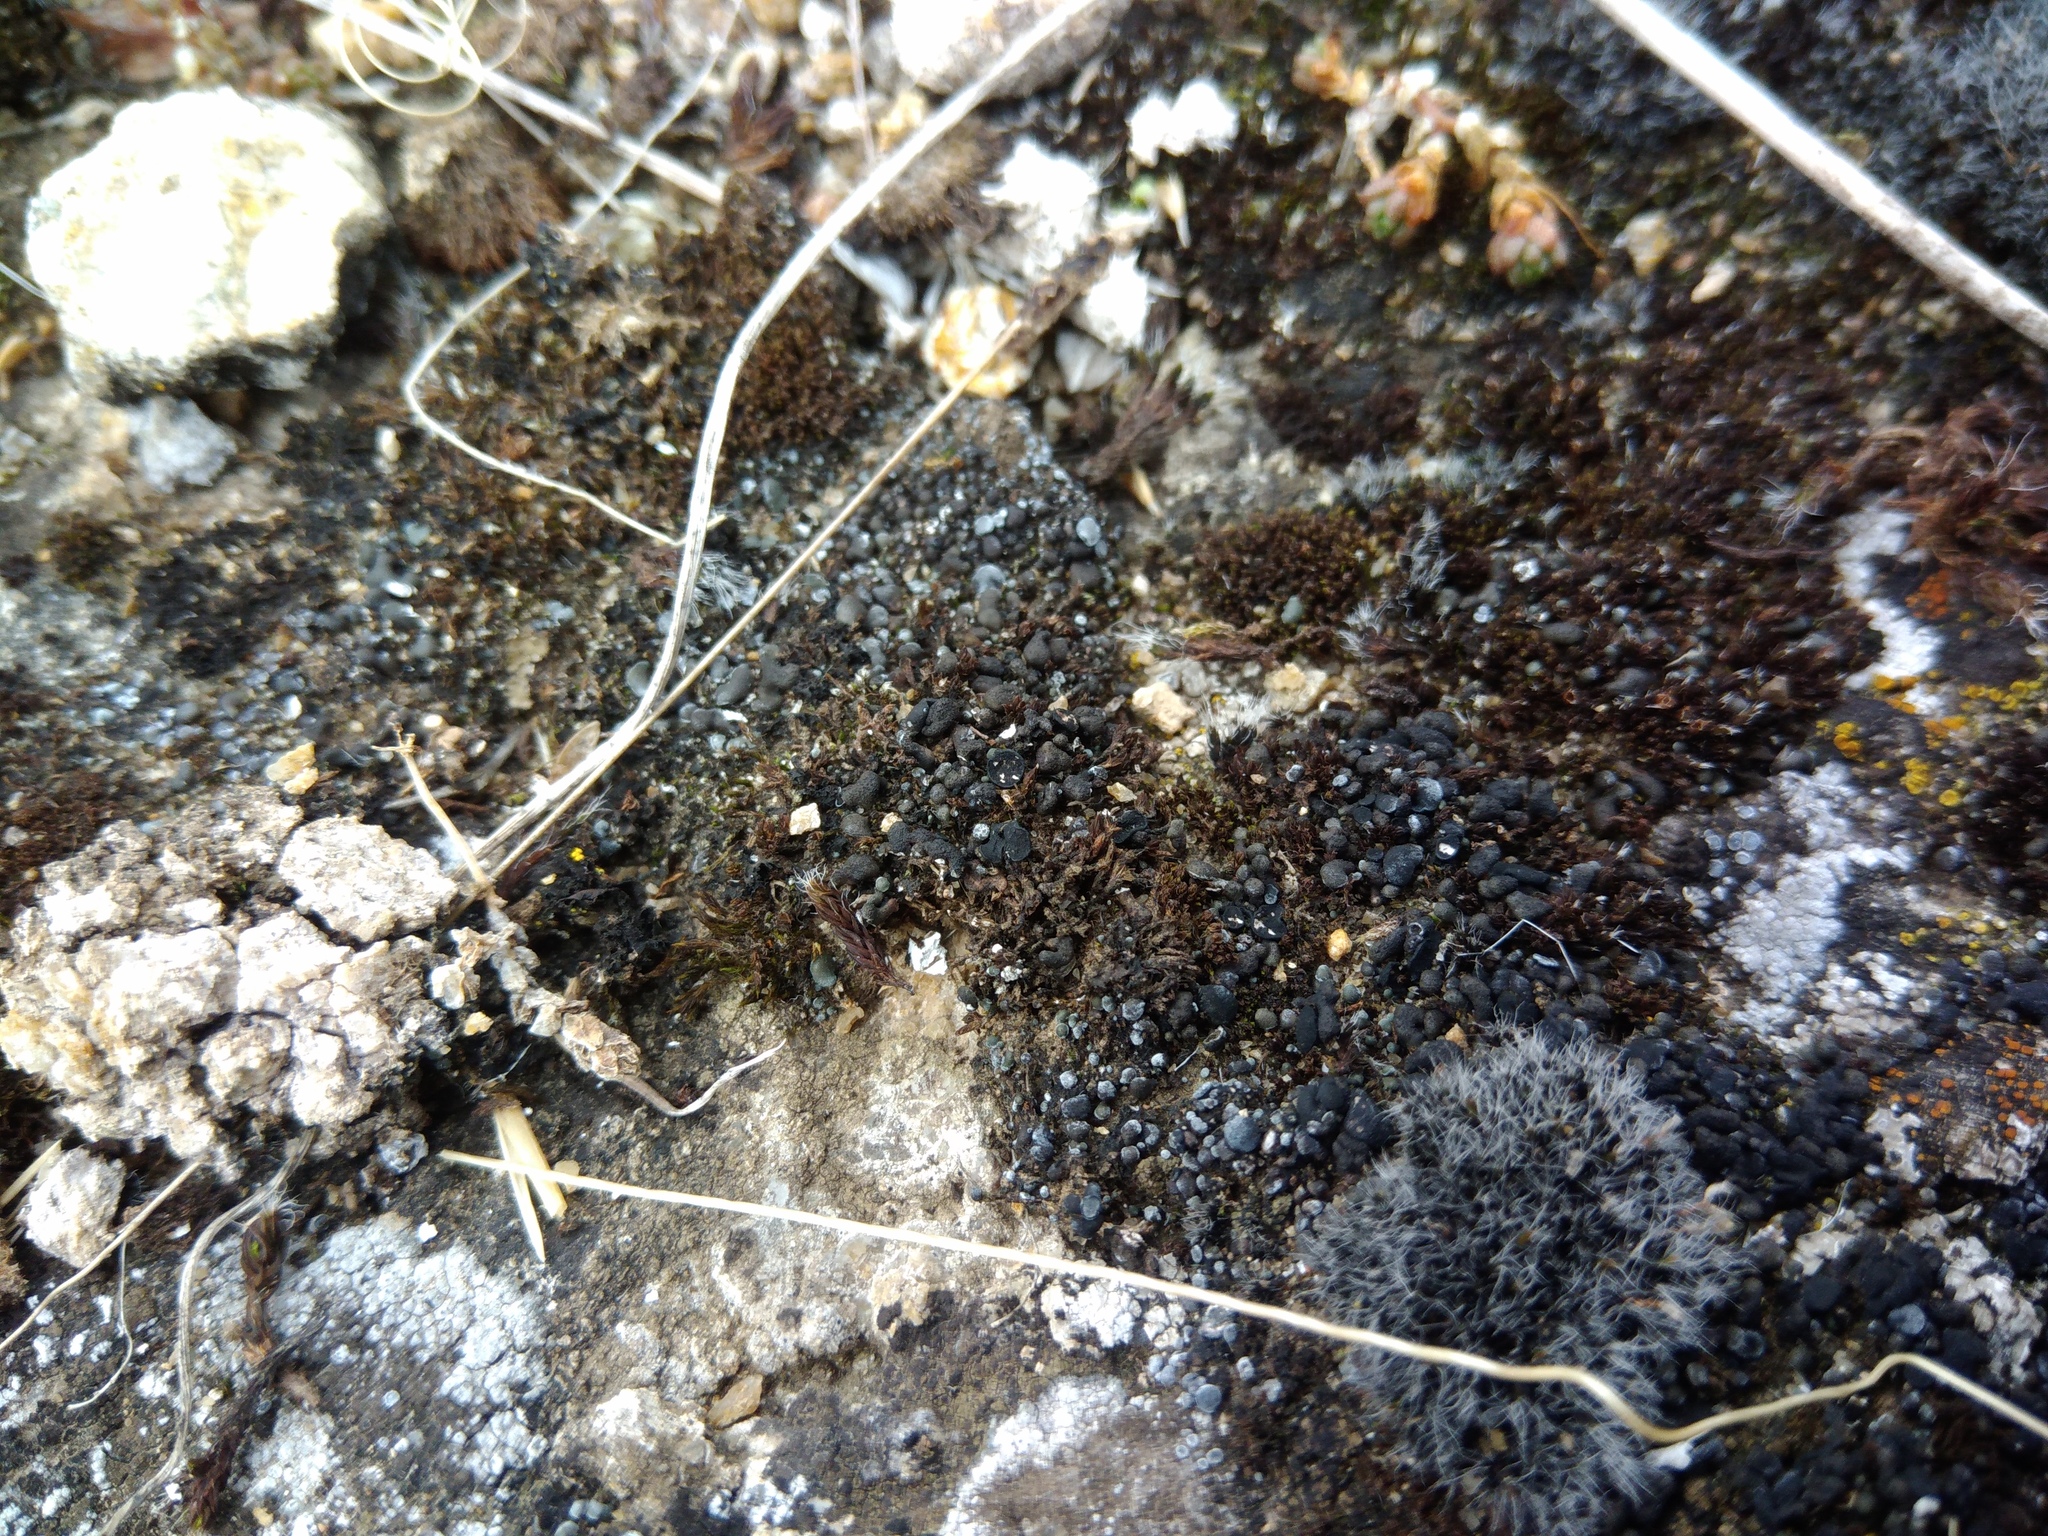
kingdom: Fungi
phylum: Ascomycota
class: Lecanoromycetes
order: Lecanorales
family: Ramalinaceae
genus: Thalloidima
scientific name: Thalloidima opuntioides
